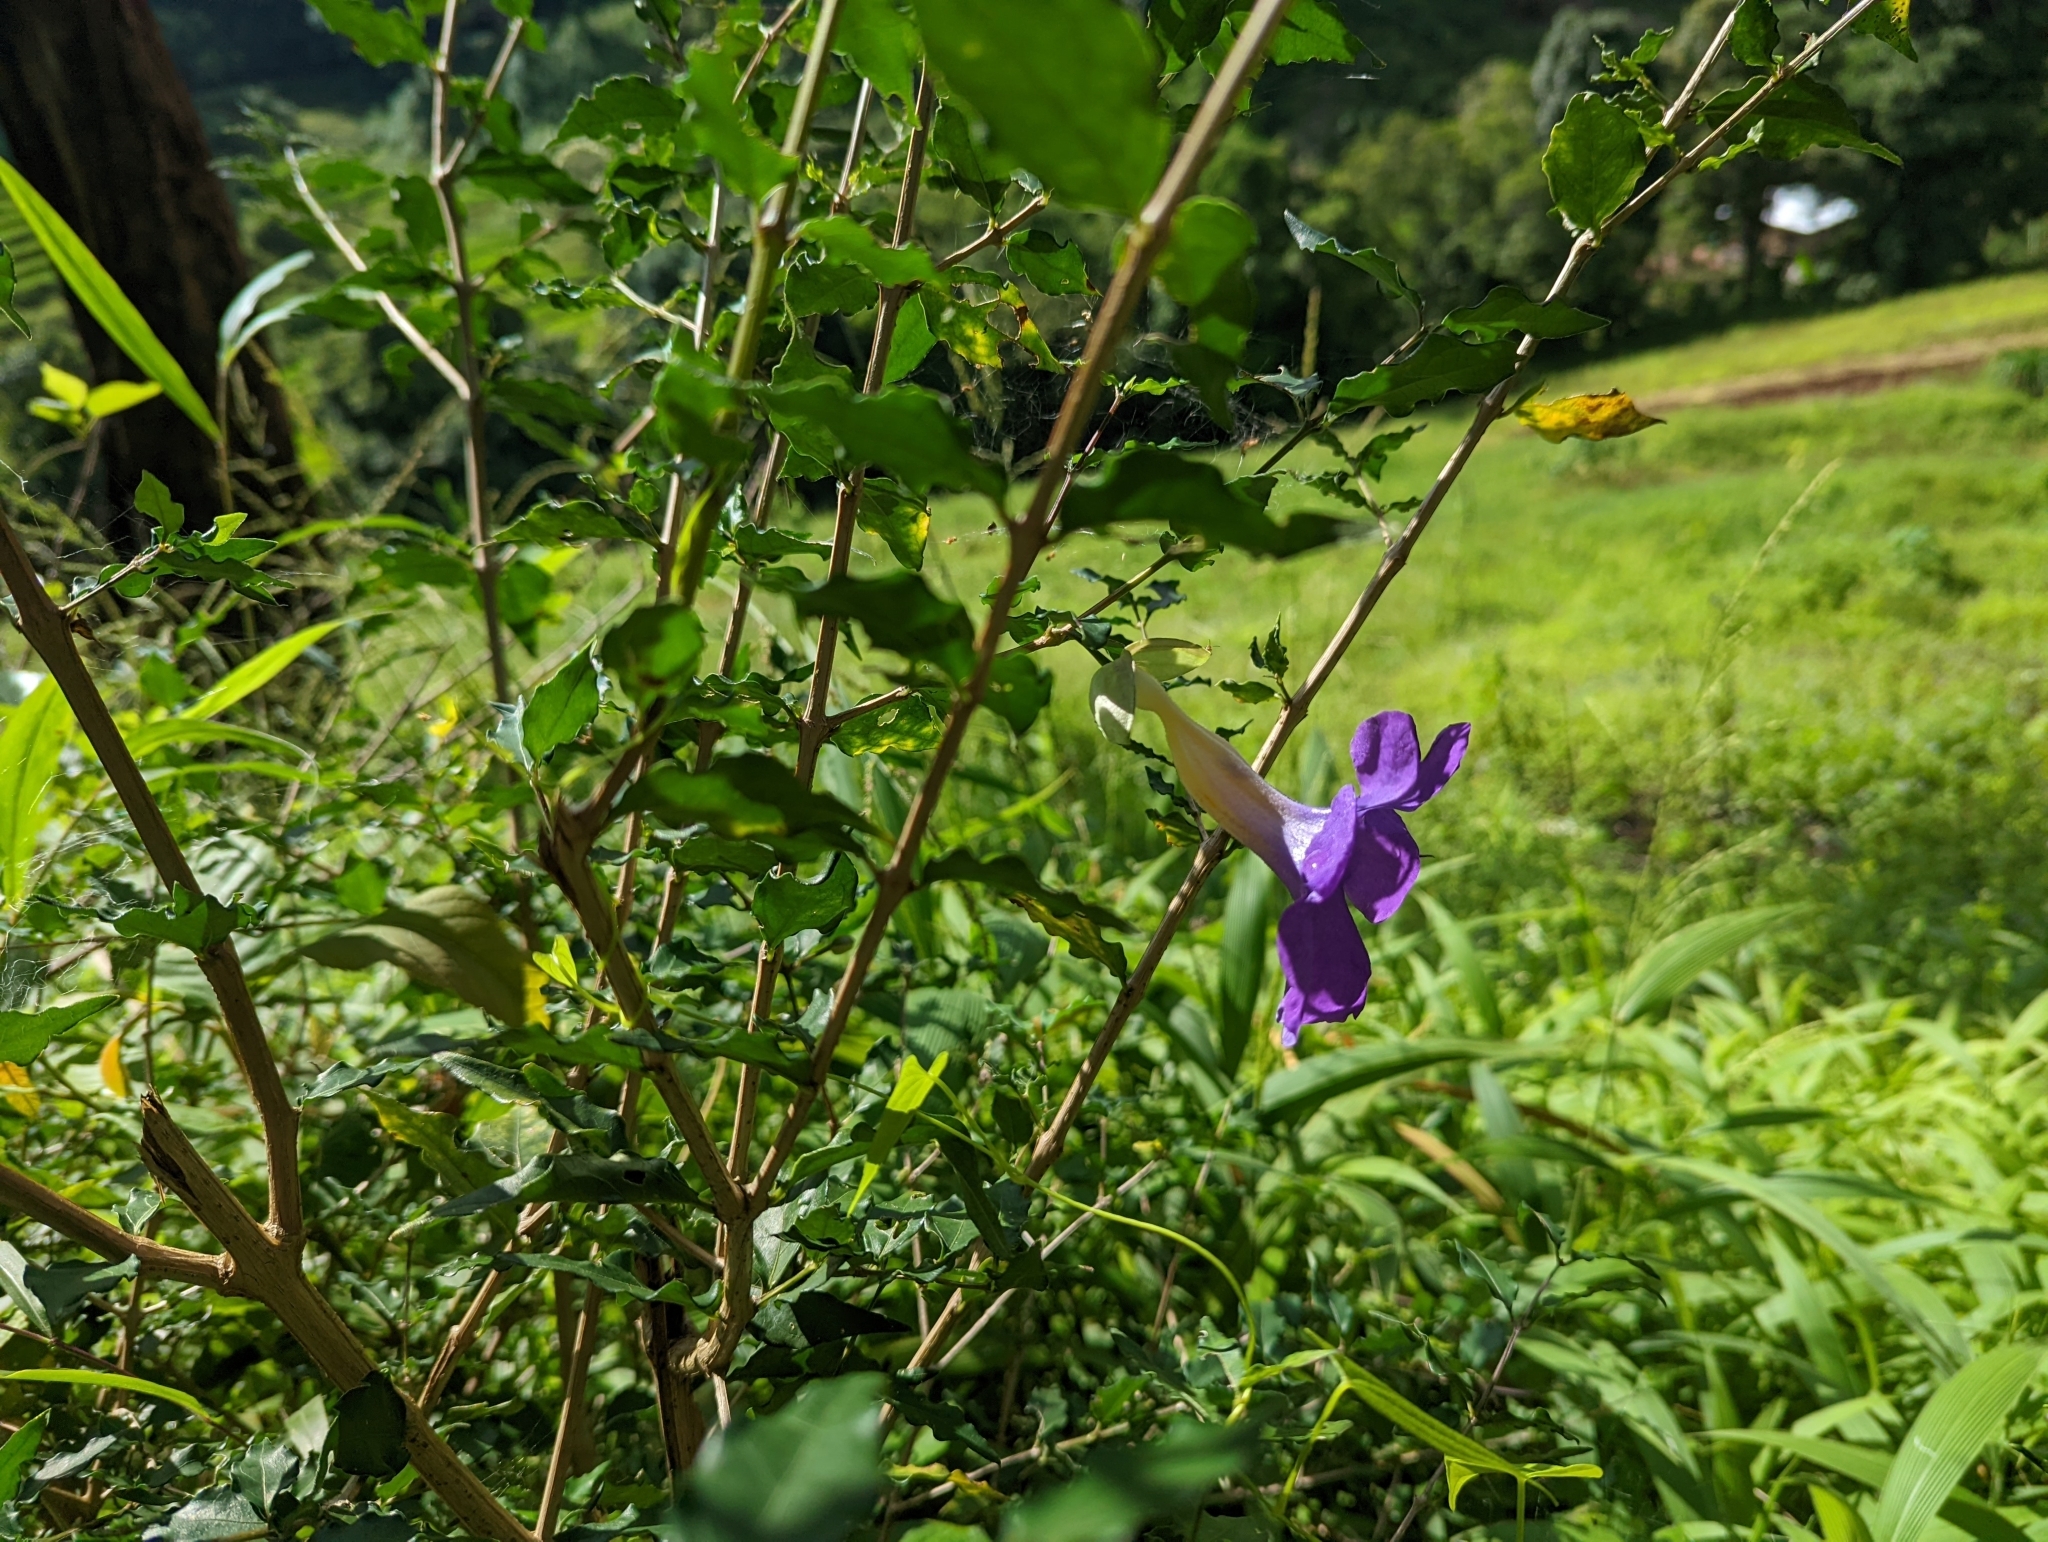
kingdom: Plantae
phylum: Tracheophyta
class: Magnoliopsida
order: Lamiales
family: Acanthaceae
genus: Thunbergia
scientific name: Thunbergia erecta
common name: Bush clockvine
